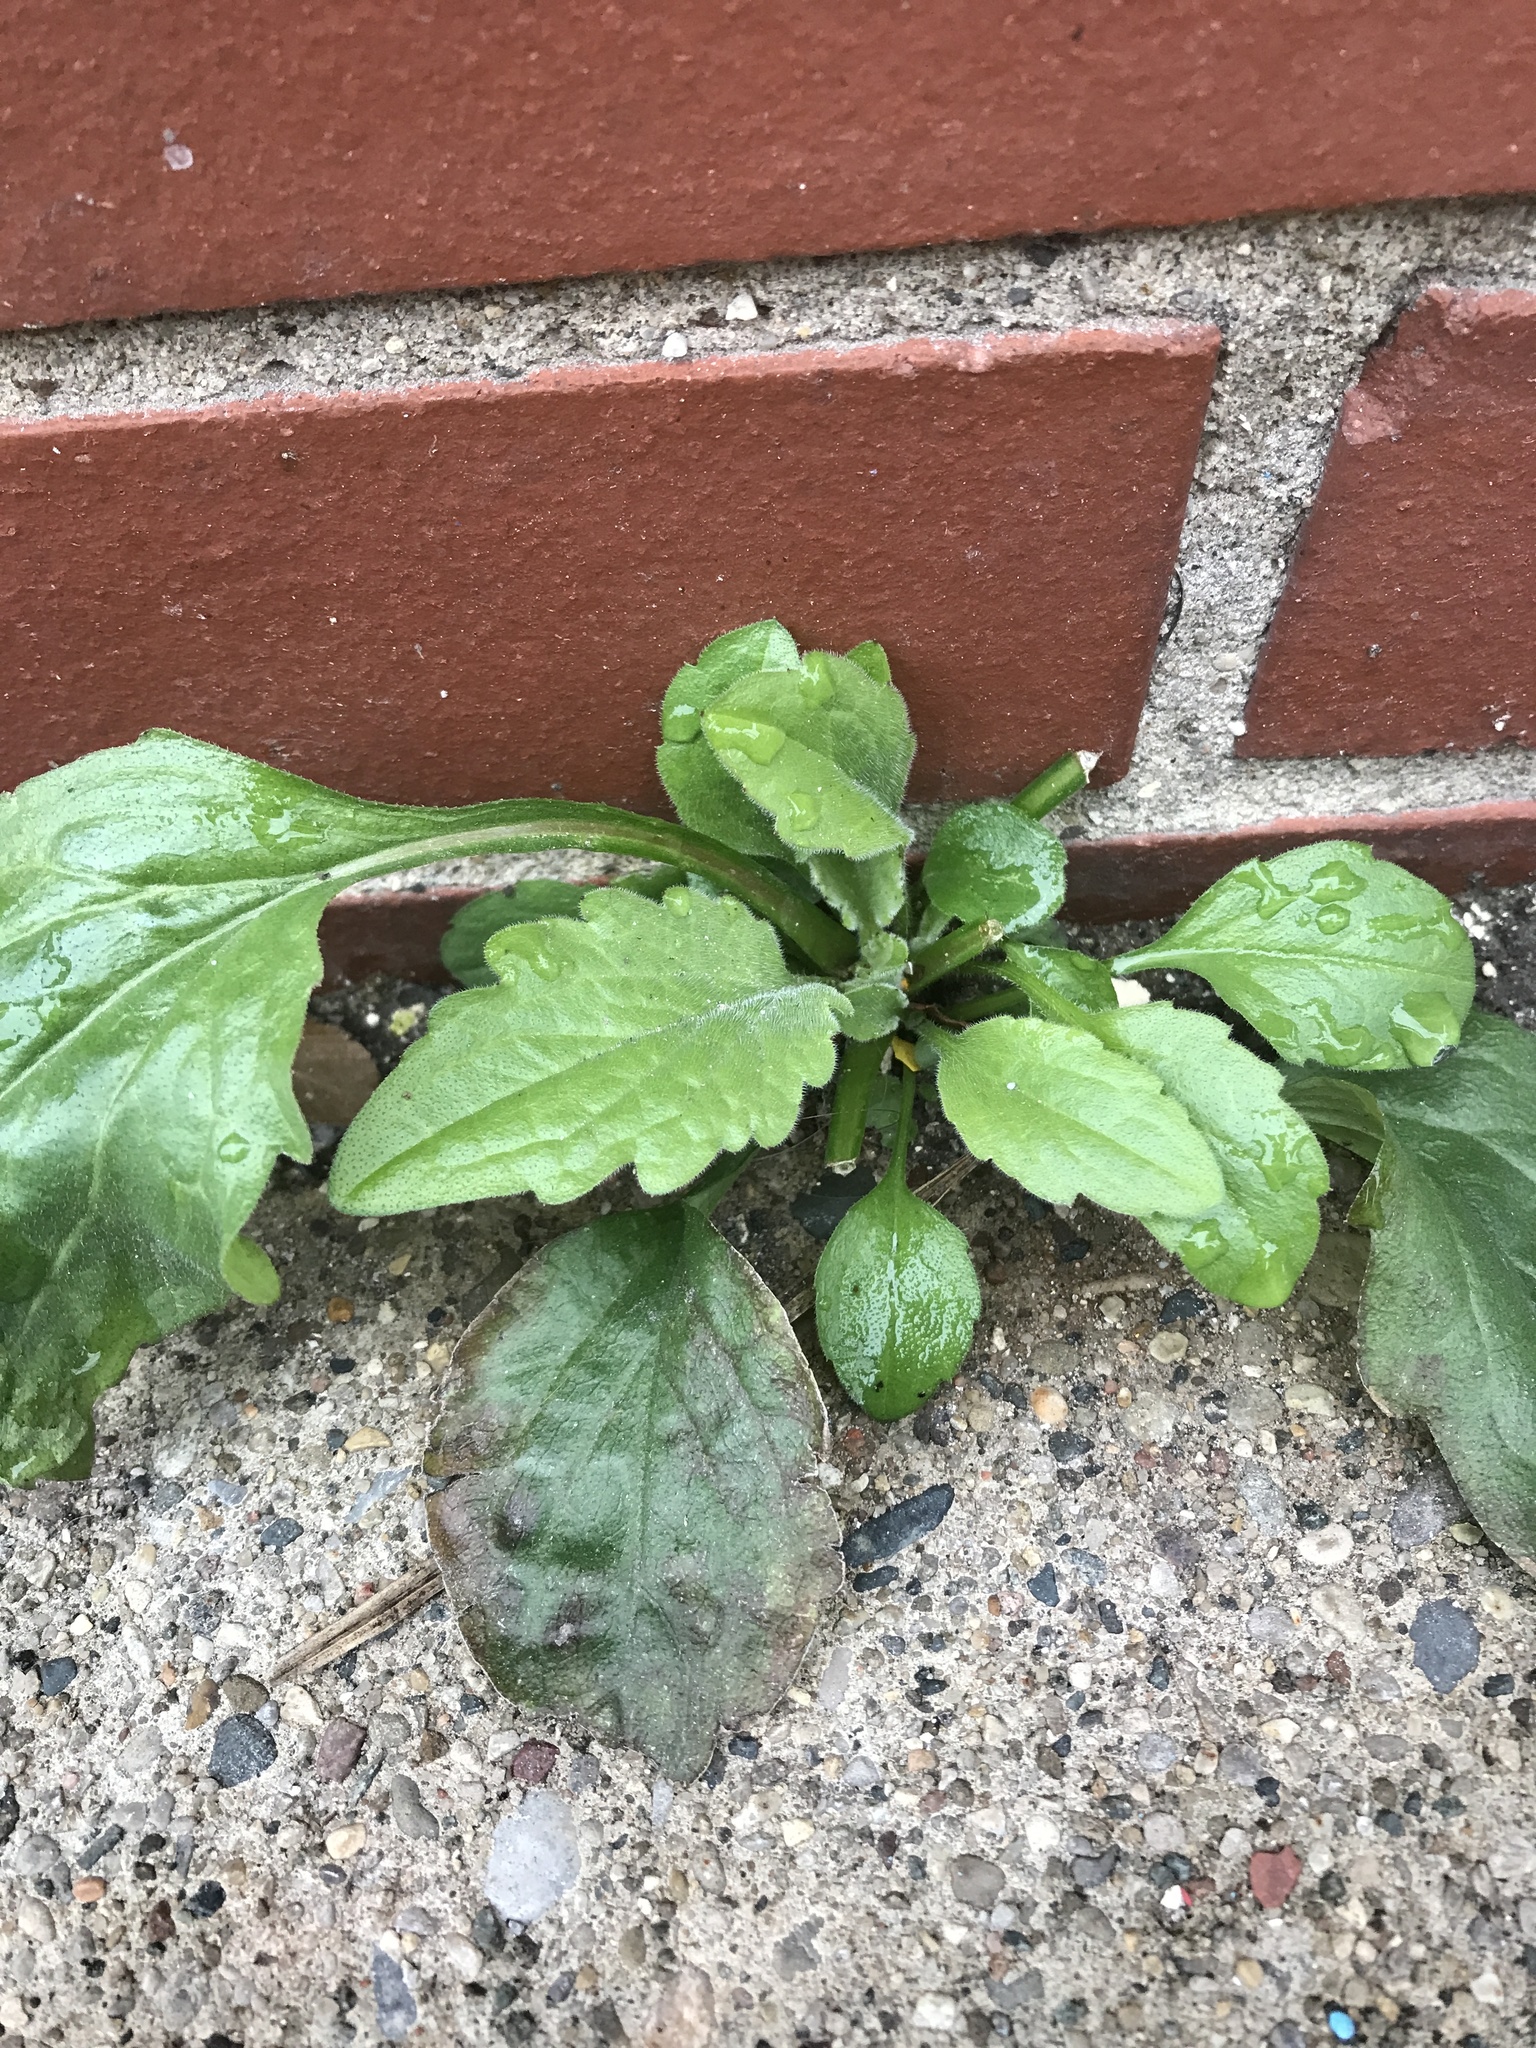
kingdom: Plantae
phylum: Tracheophyta
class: Magnoliopsida
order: Asterales
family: Asteraceae
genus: Erigeron
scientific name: Erigeron annuus
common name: Tall fleabane
